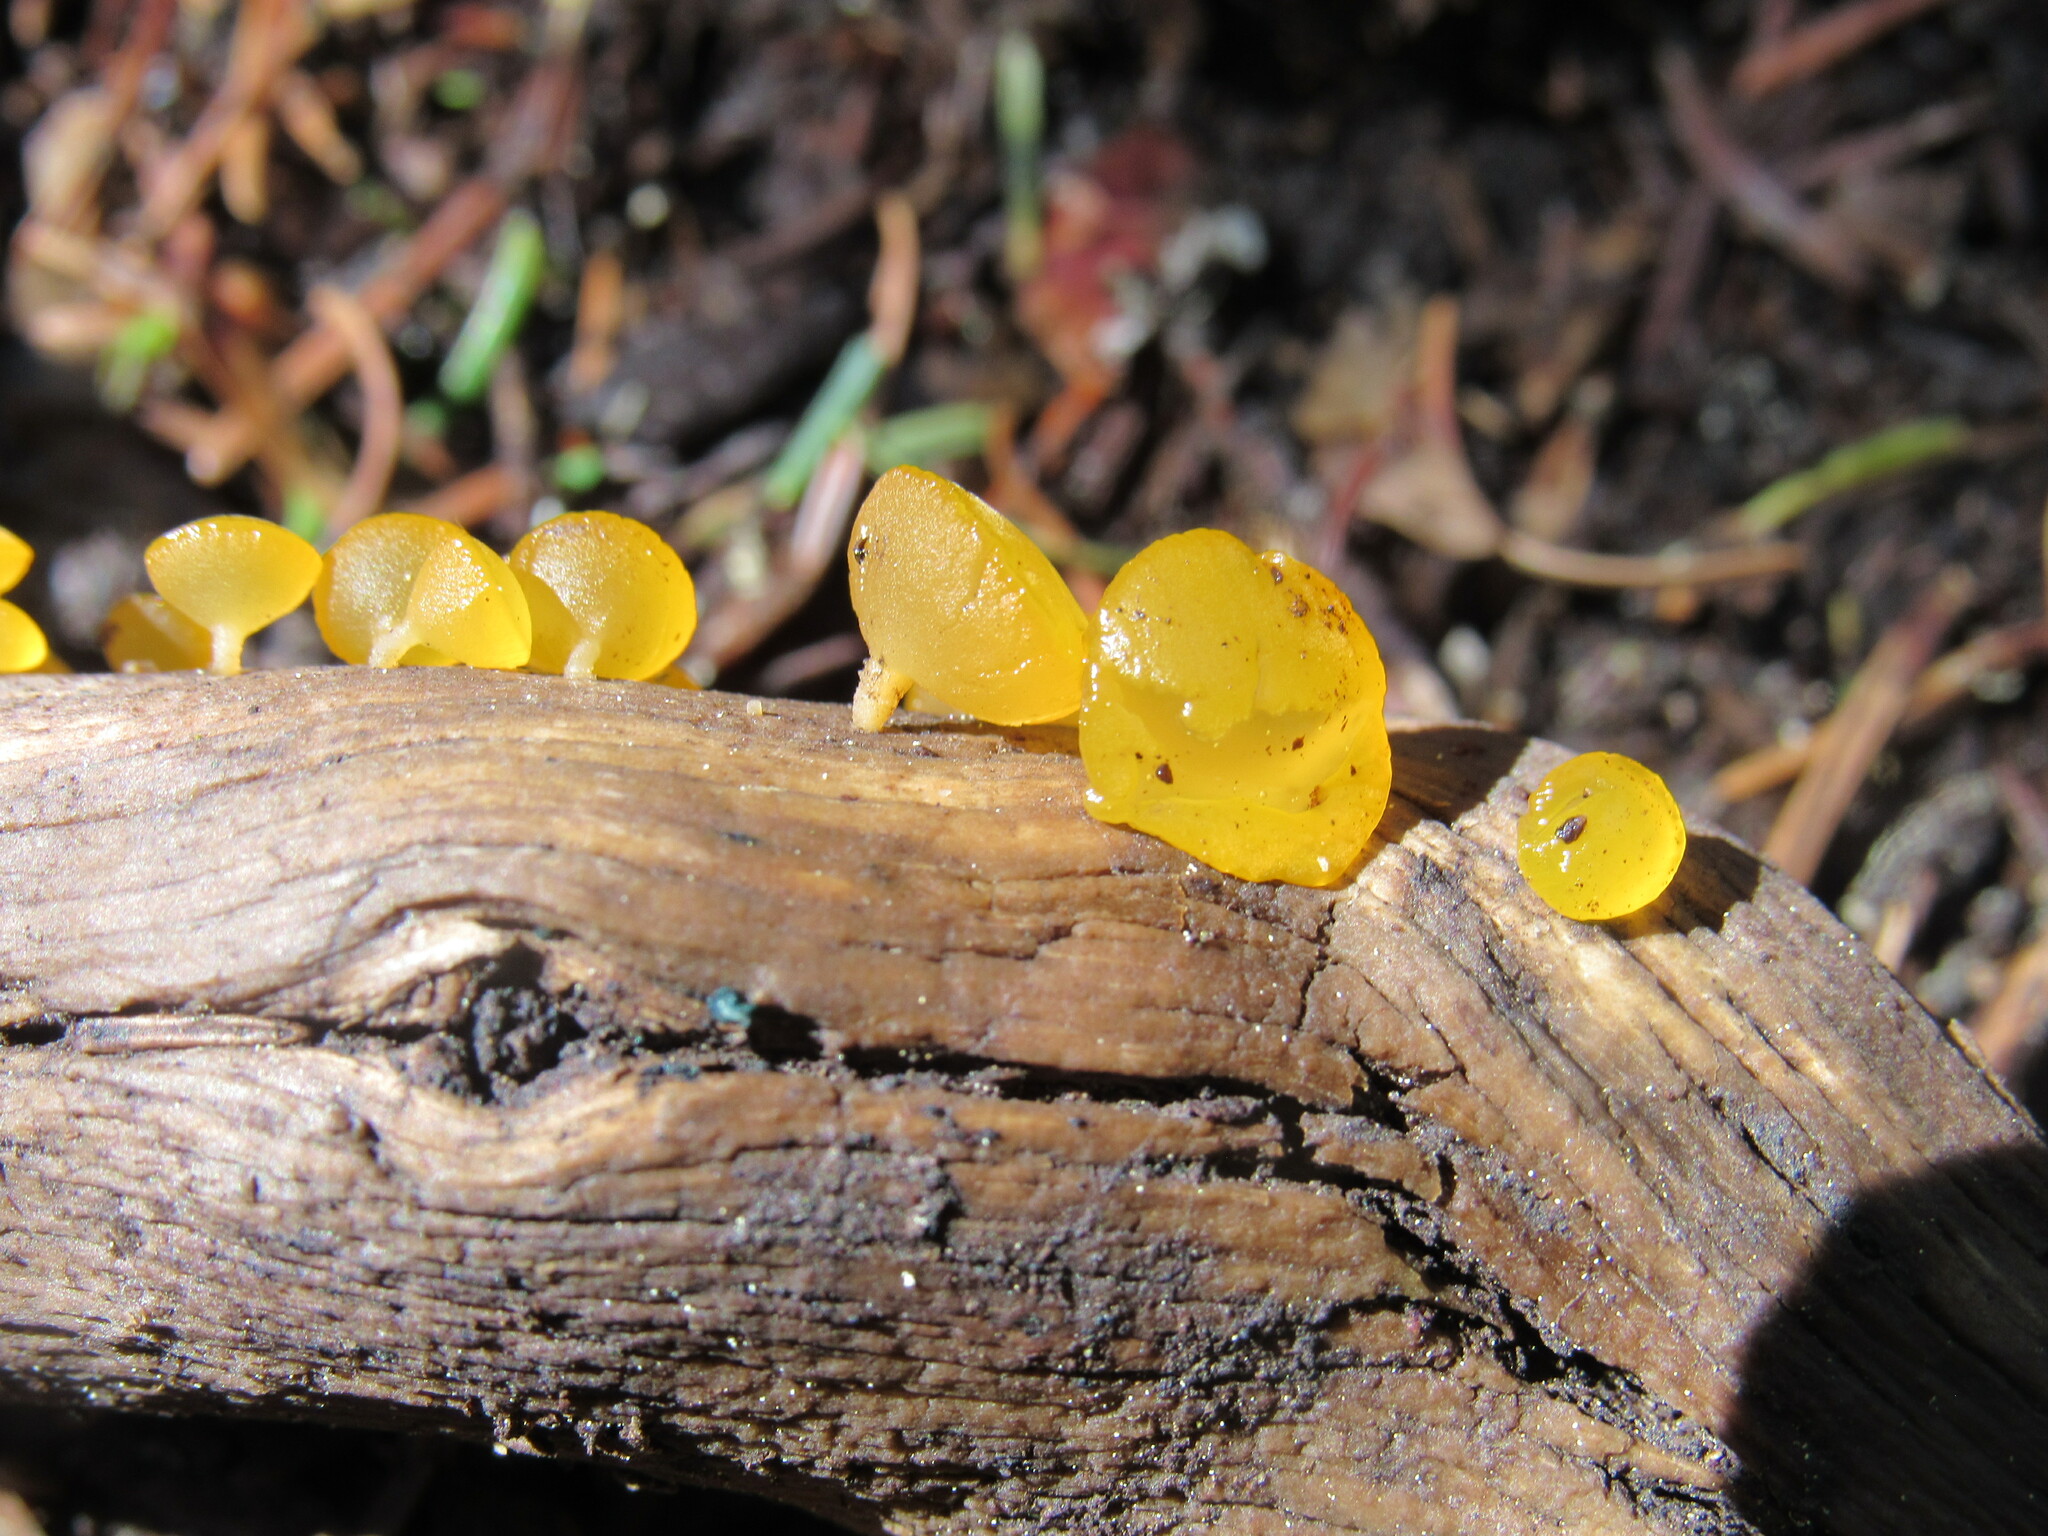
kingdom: Fungi
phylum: Basidiomycota
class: Dacrymycetes
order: Dacrymycetales
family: Dacrymycetaceae
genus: Guepiniopsis
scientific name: Guepiniopsis alpina
